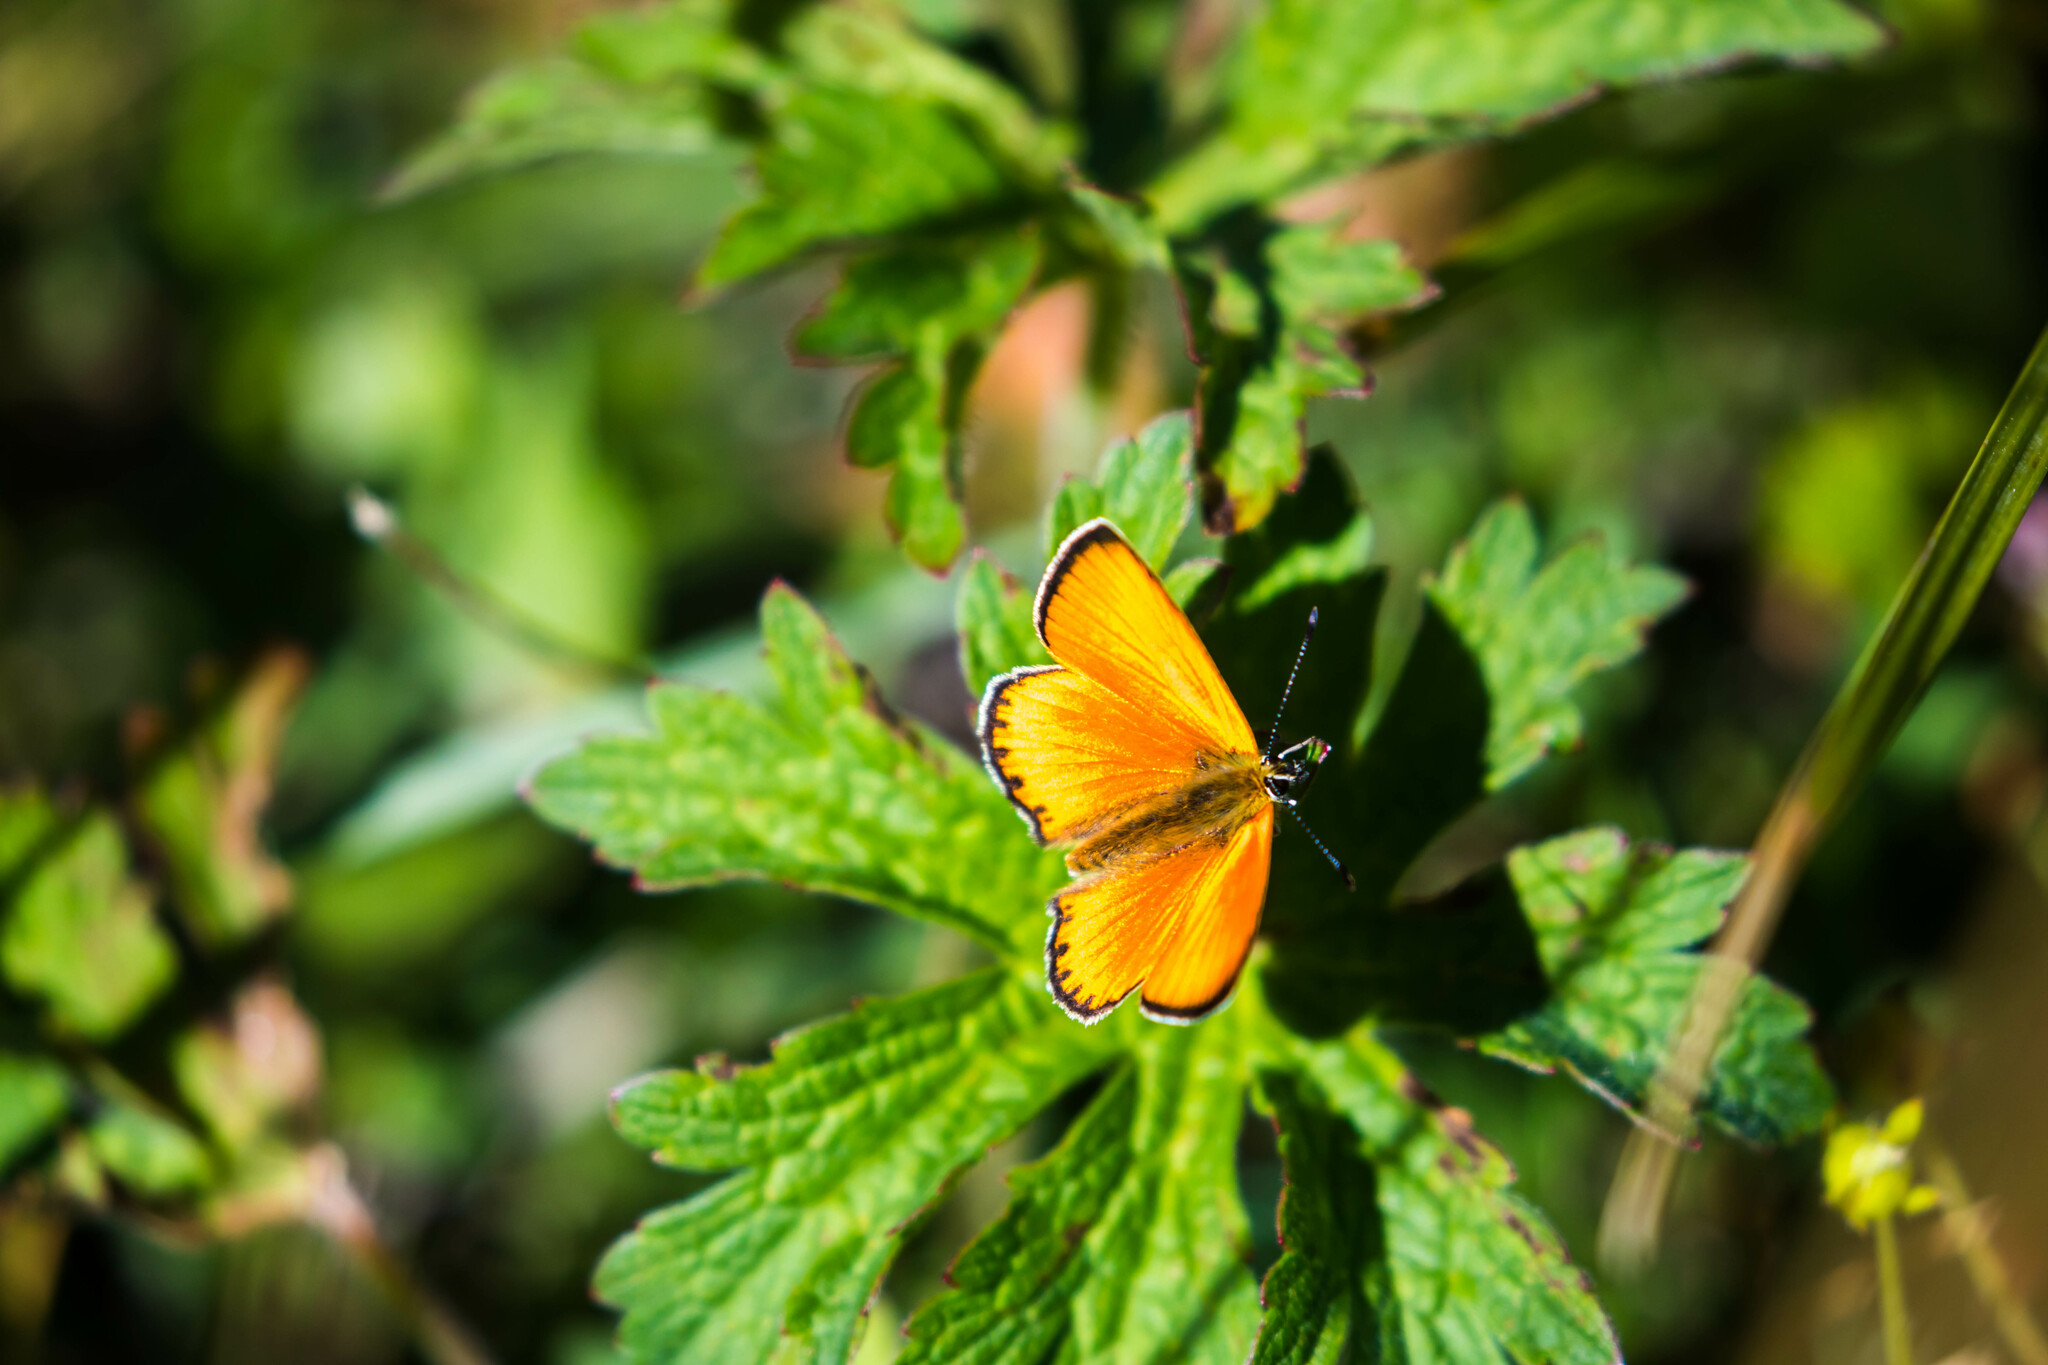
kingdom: Animalia
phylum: Arthropoda
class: Insecta
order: Lepidoptera
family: Lycaenidae
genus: Lycaena
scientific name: Lycaena virgaureae
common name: Scarce copper
